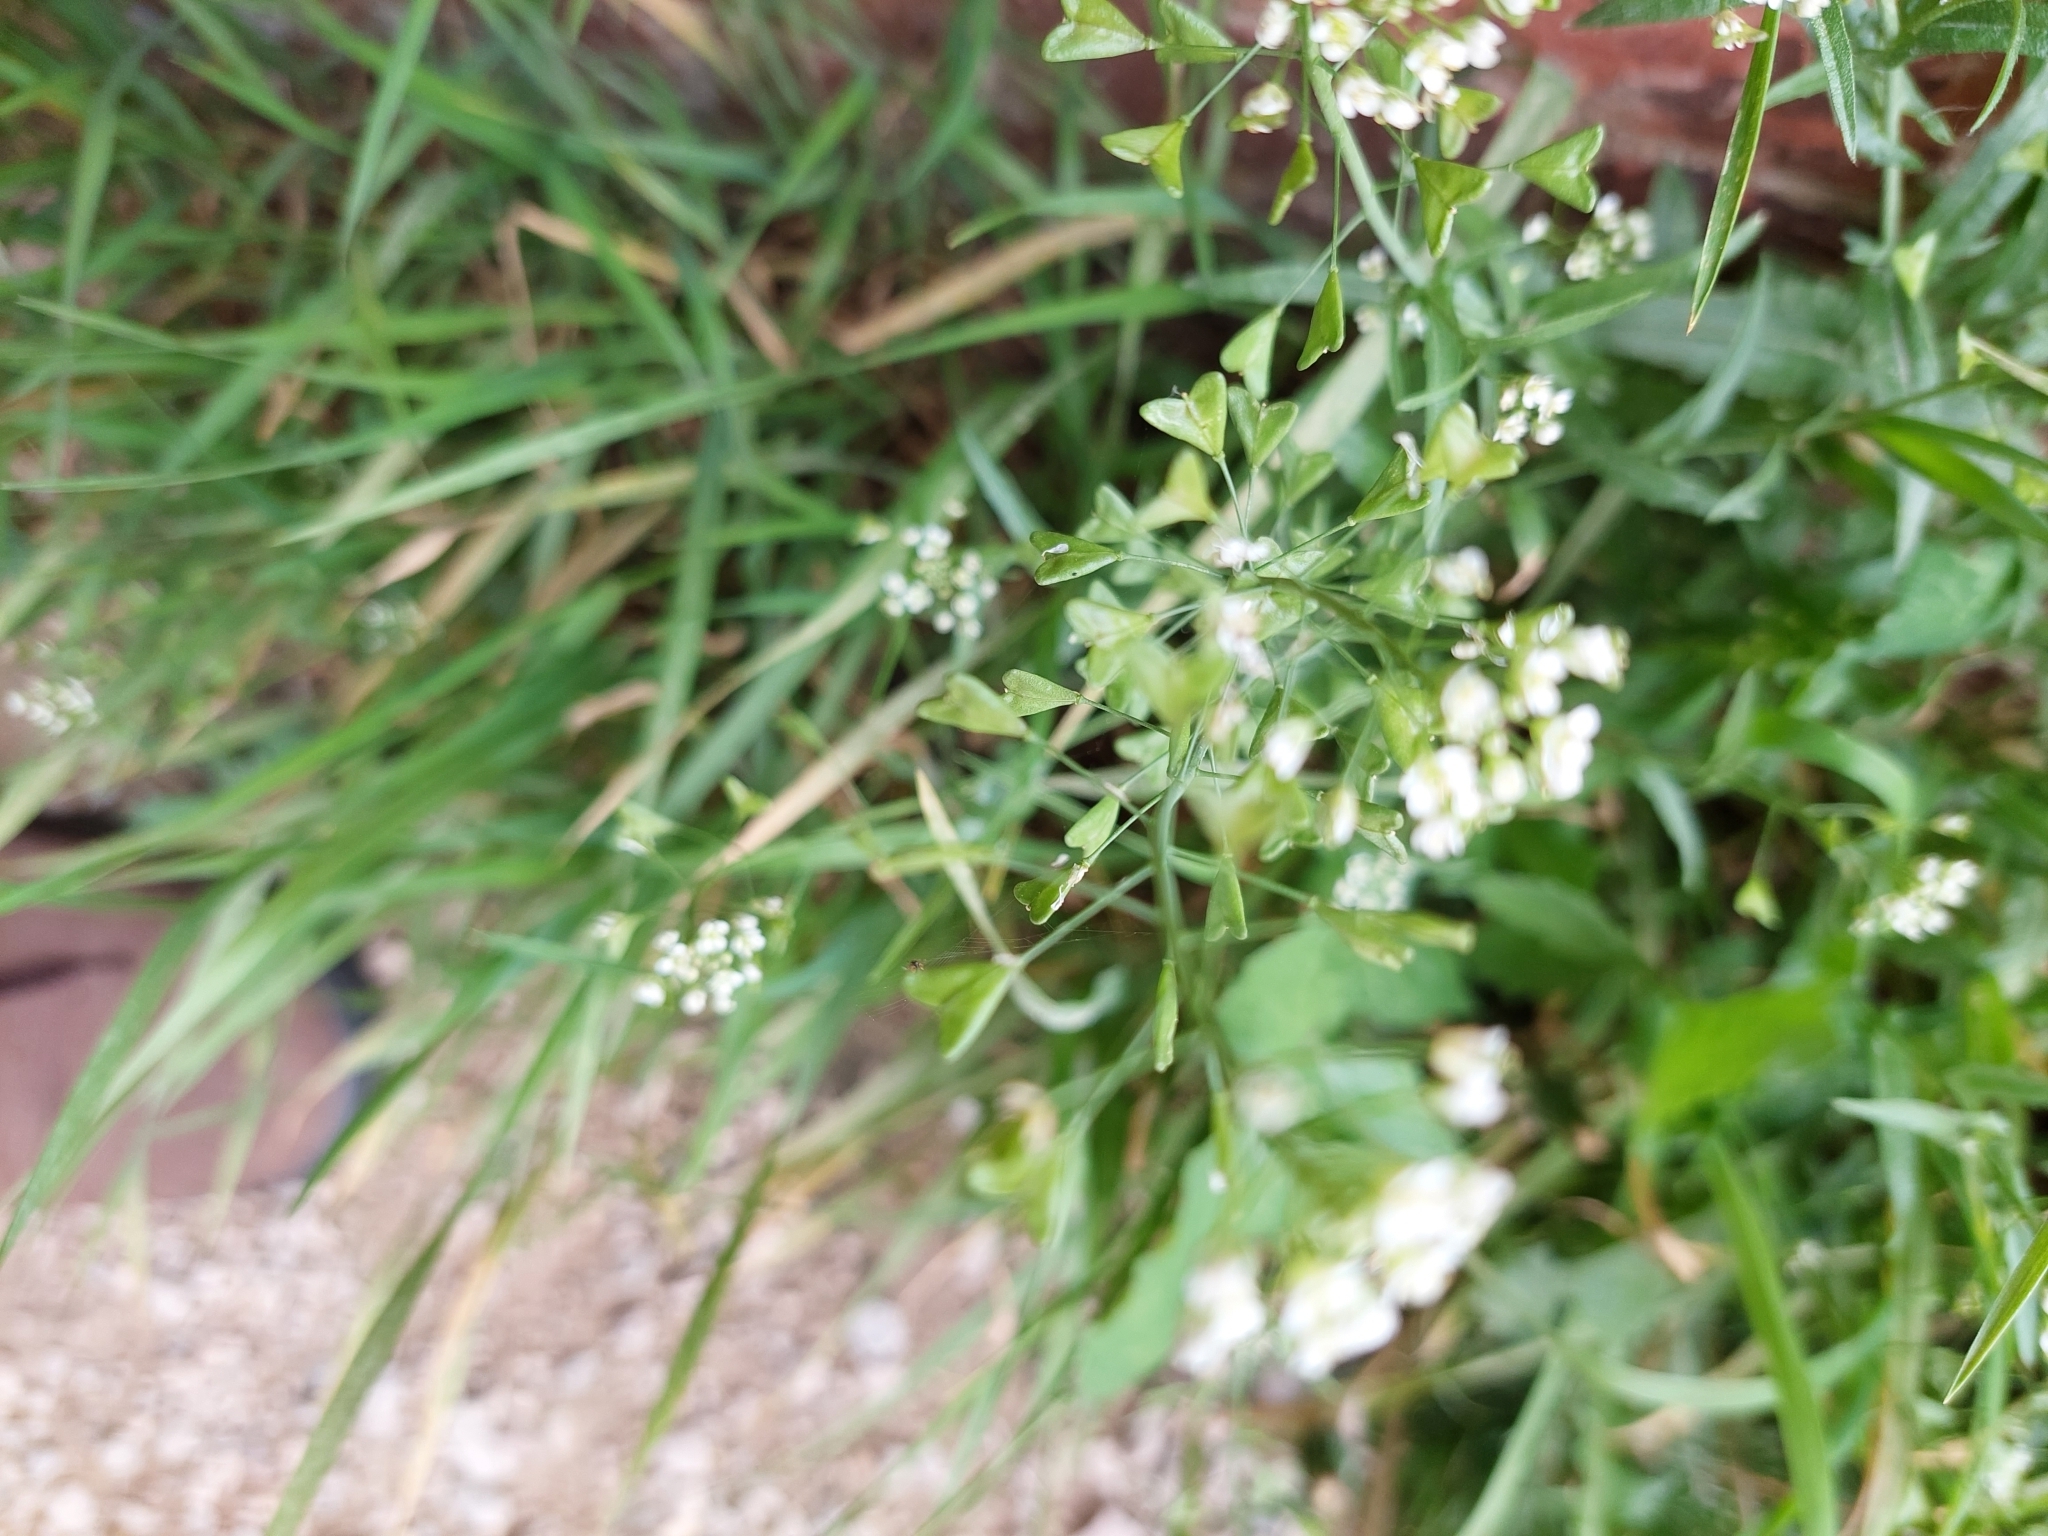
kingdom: Plantae
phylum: Tracheophyta
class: Magnoliopsida
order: Brassicales
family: Brassicaceae
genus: Capsella
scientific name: Capsella bursa-pastoris
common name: Shepherd's purse
